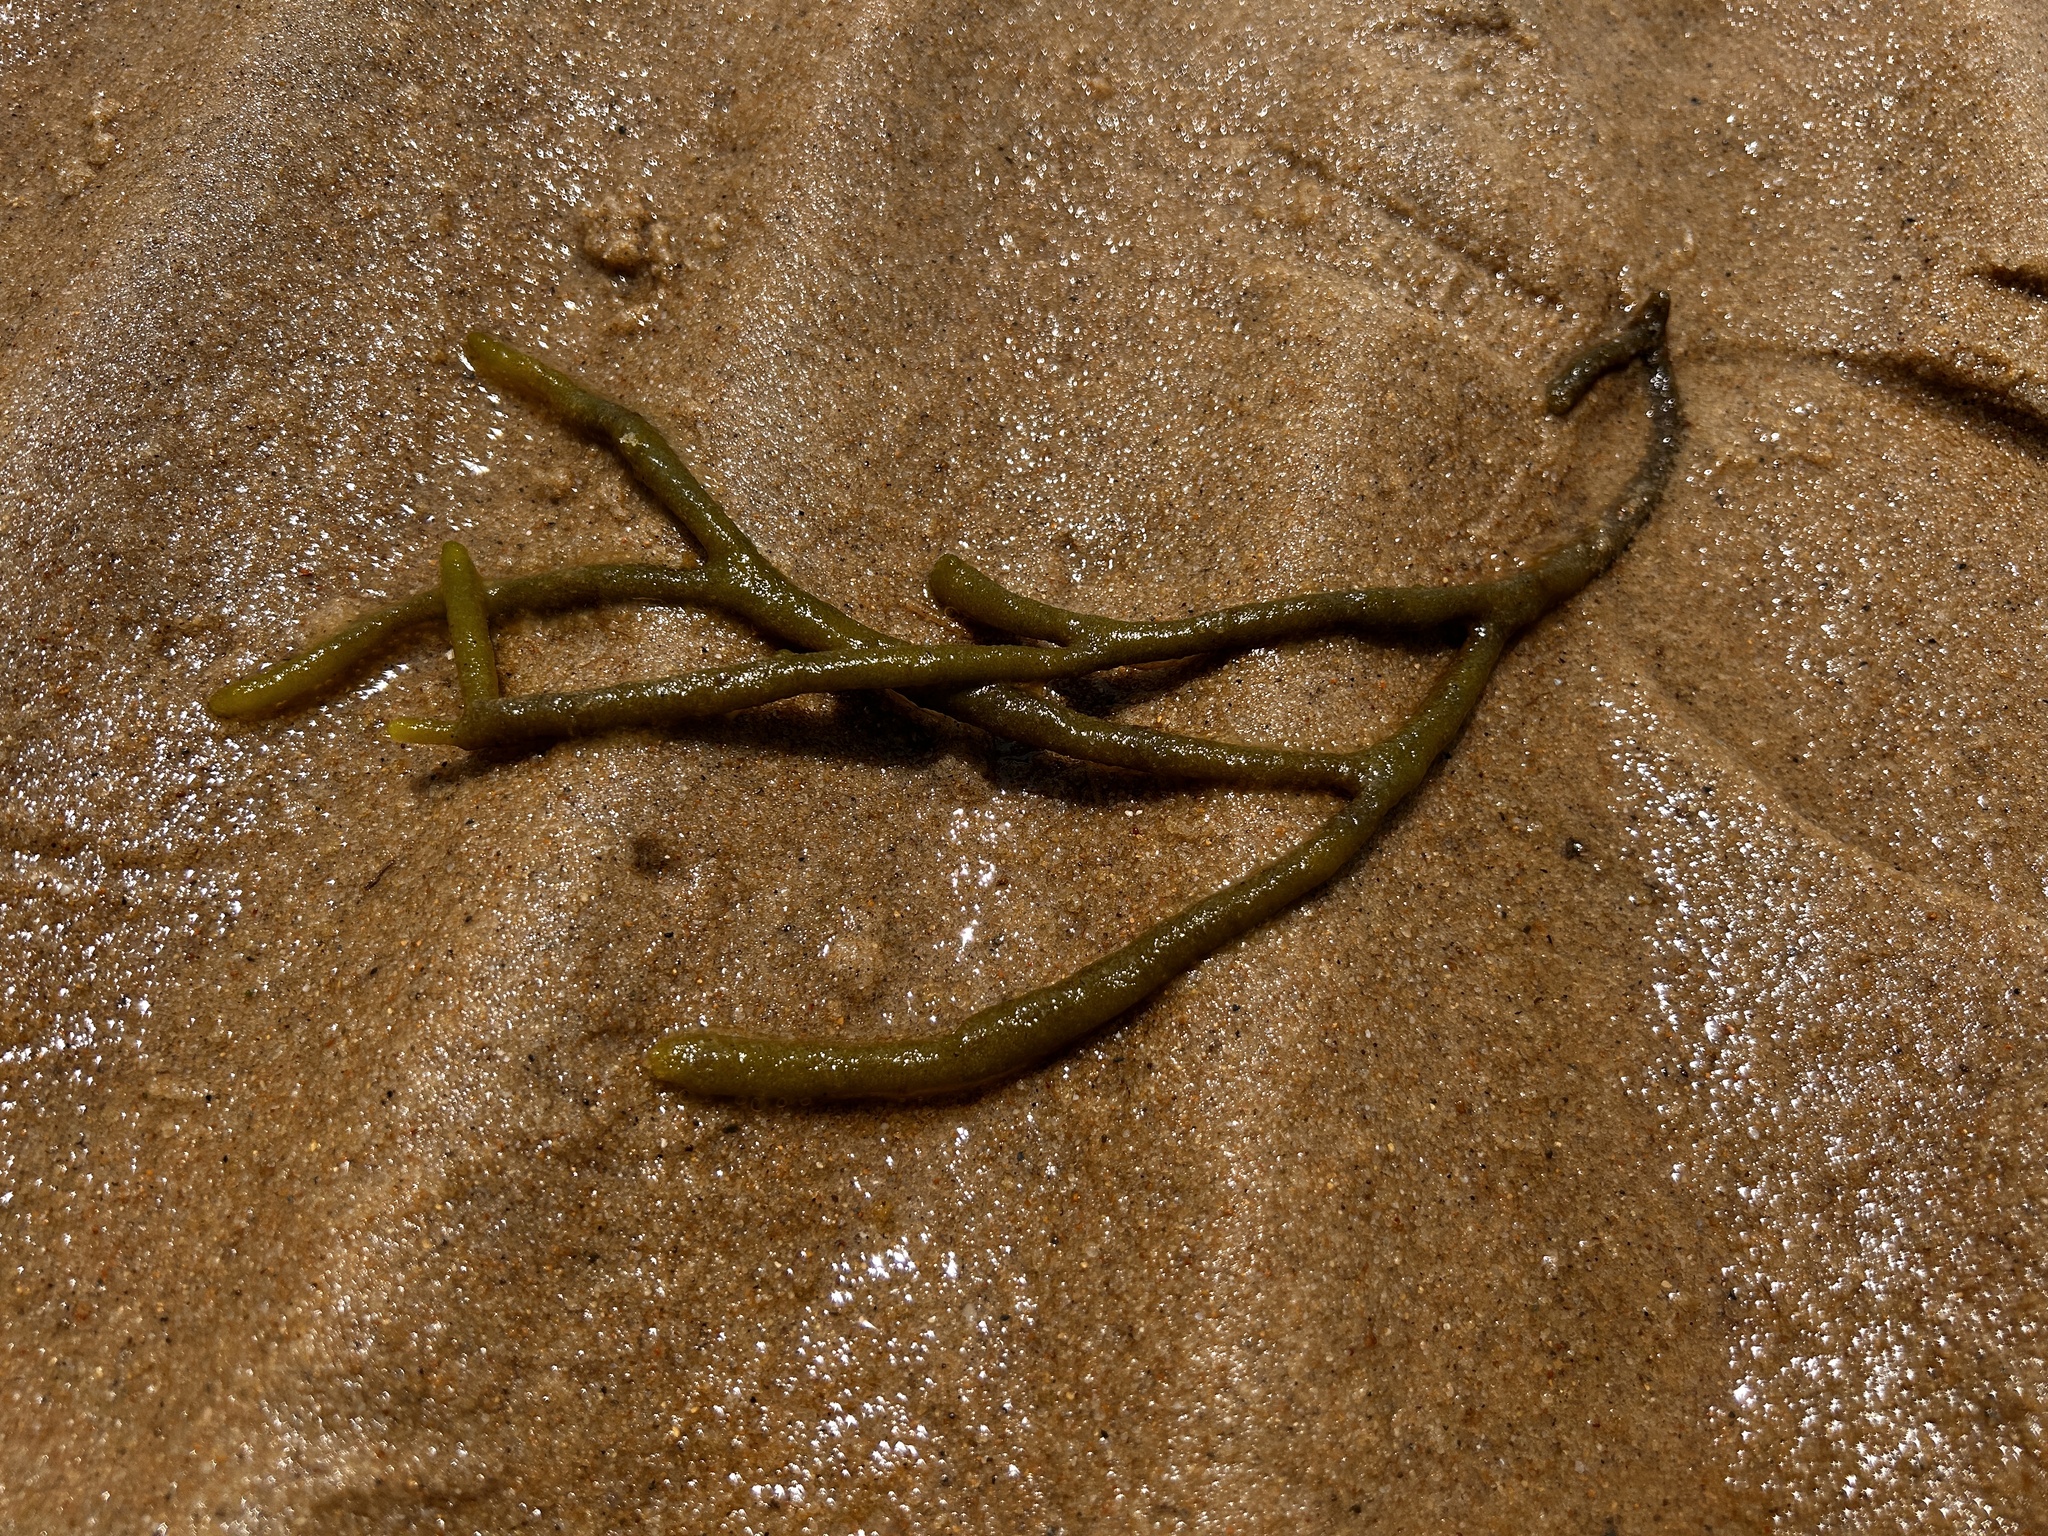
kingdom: Plantae
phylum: Chlorophyta
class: Ulvophyceae
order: Bryopsidales
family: Codiaceae
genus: Codium
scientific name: Codium fragile
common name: Dead man's fingers
